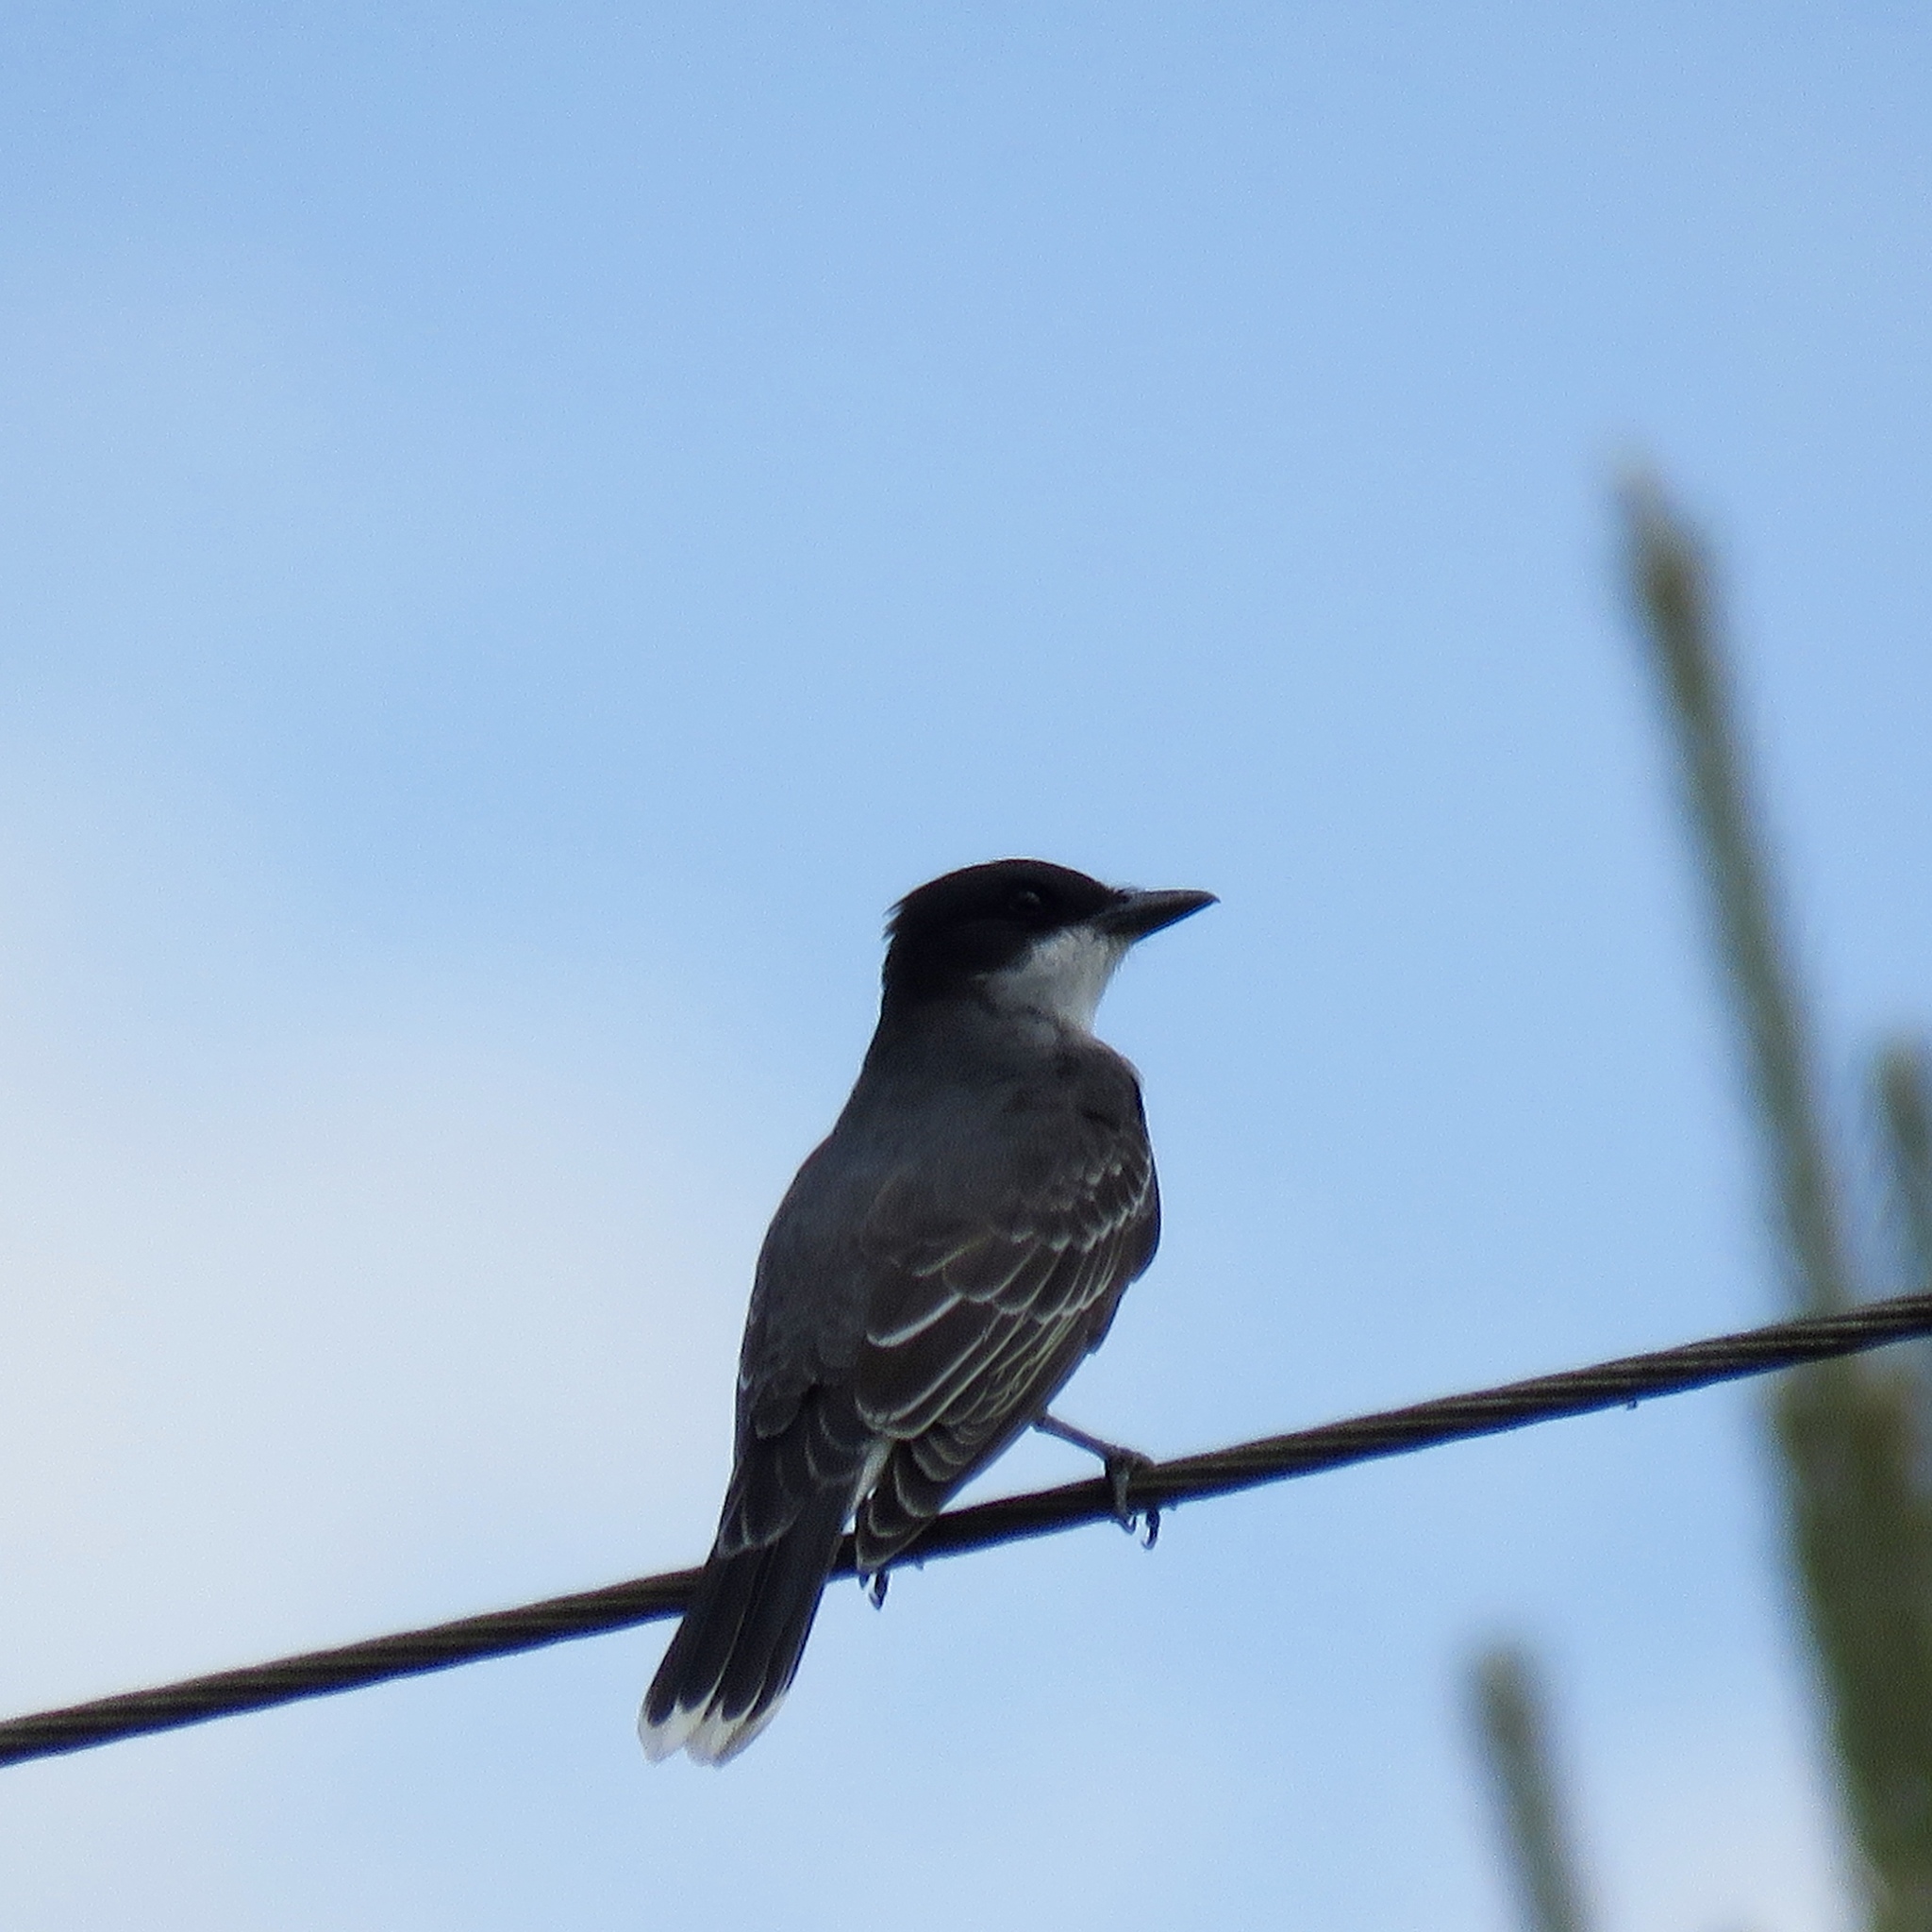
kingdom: Animalia
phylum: Chordata
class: Aves
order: Passeriformes
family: Tyrannidae
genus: Tyrannus
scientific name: Tyrannus tyrannus
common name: Eastern kingbird
